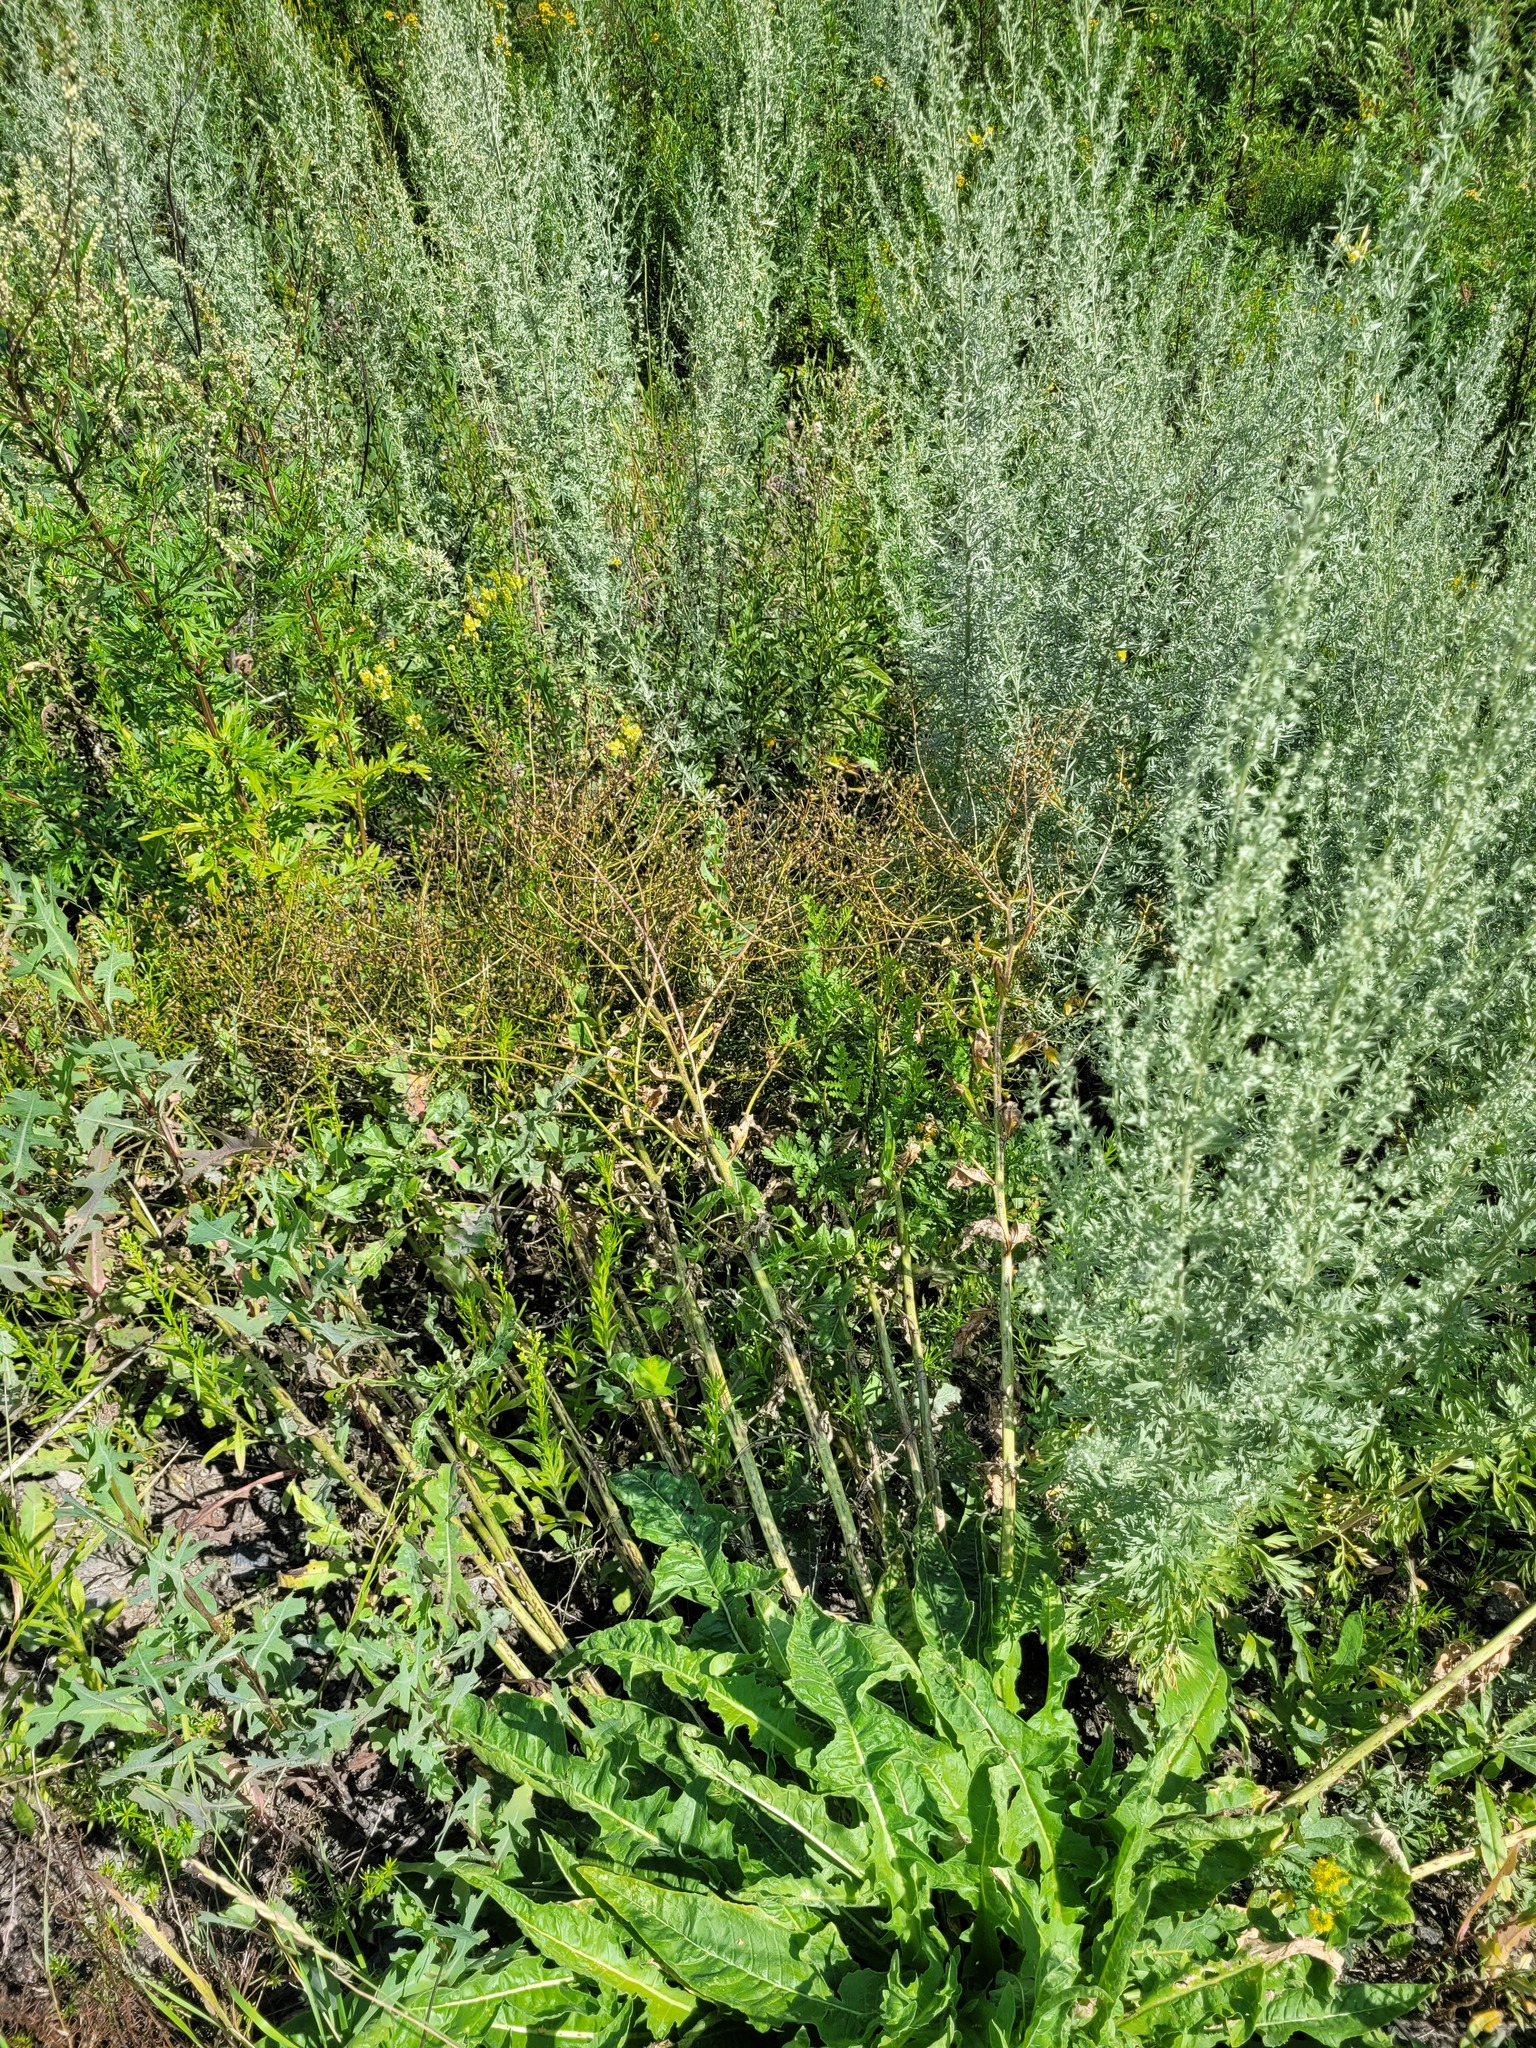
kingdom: Plantae
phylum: Tracheophyta
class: Magnoliopsida
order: Brassicales
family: Brassicaceae
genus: Bunias
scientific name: Bunias orientalis
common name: Warty-cabbage
